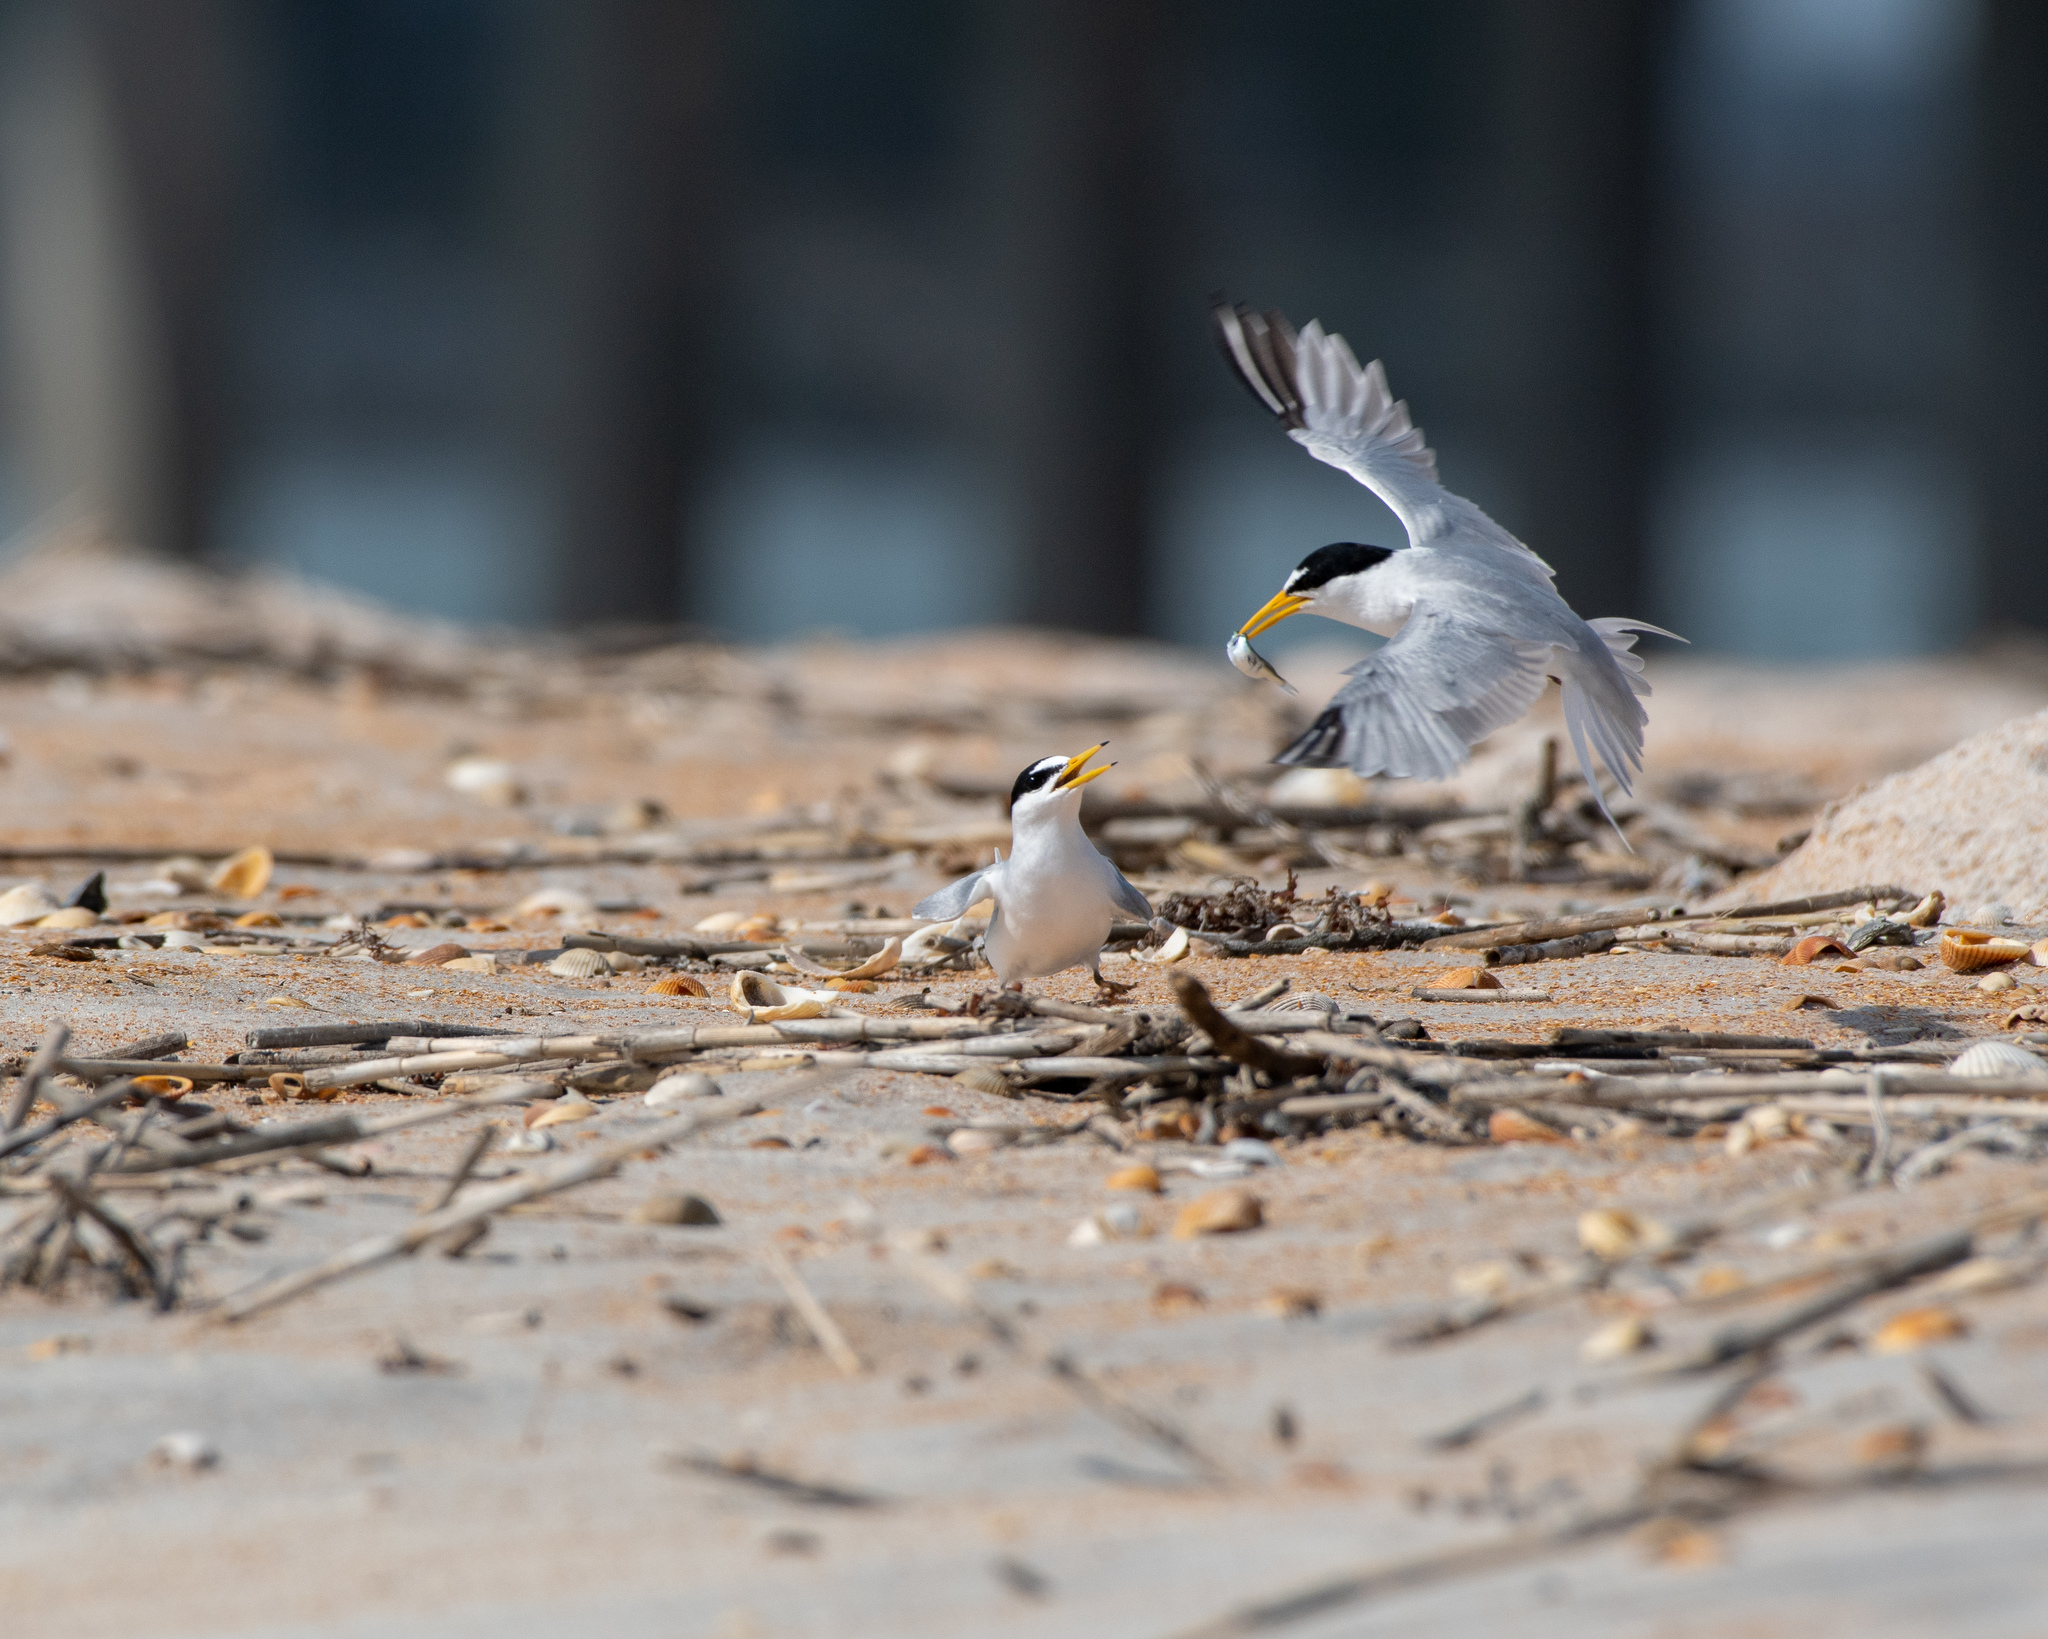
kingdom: Animalia
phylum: Chordata
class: Aves
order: Charadriiformes
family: Laridae
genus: Sternula
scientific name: Sternula antillarum
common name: Least tern
